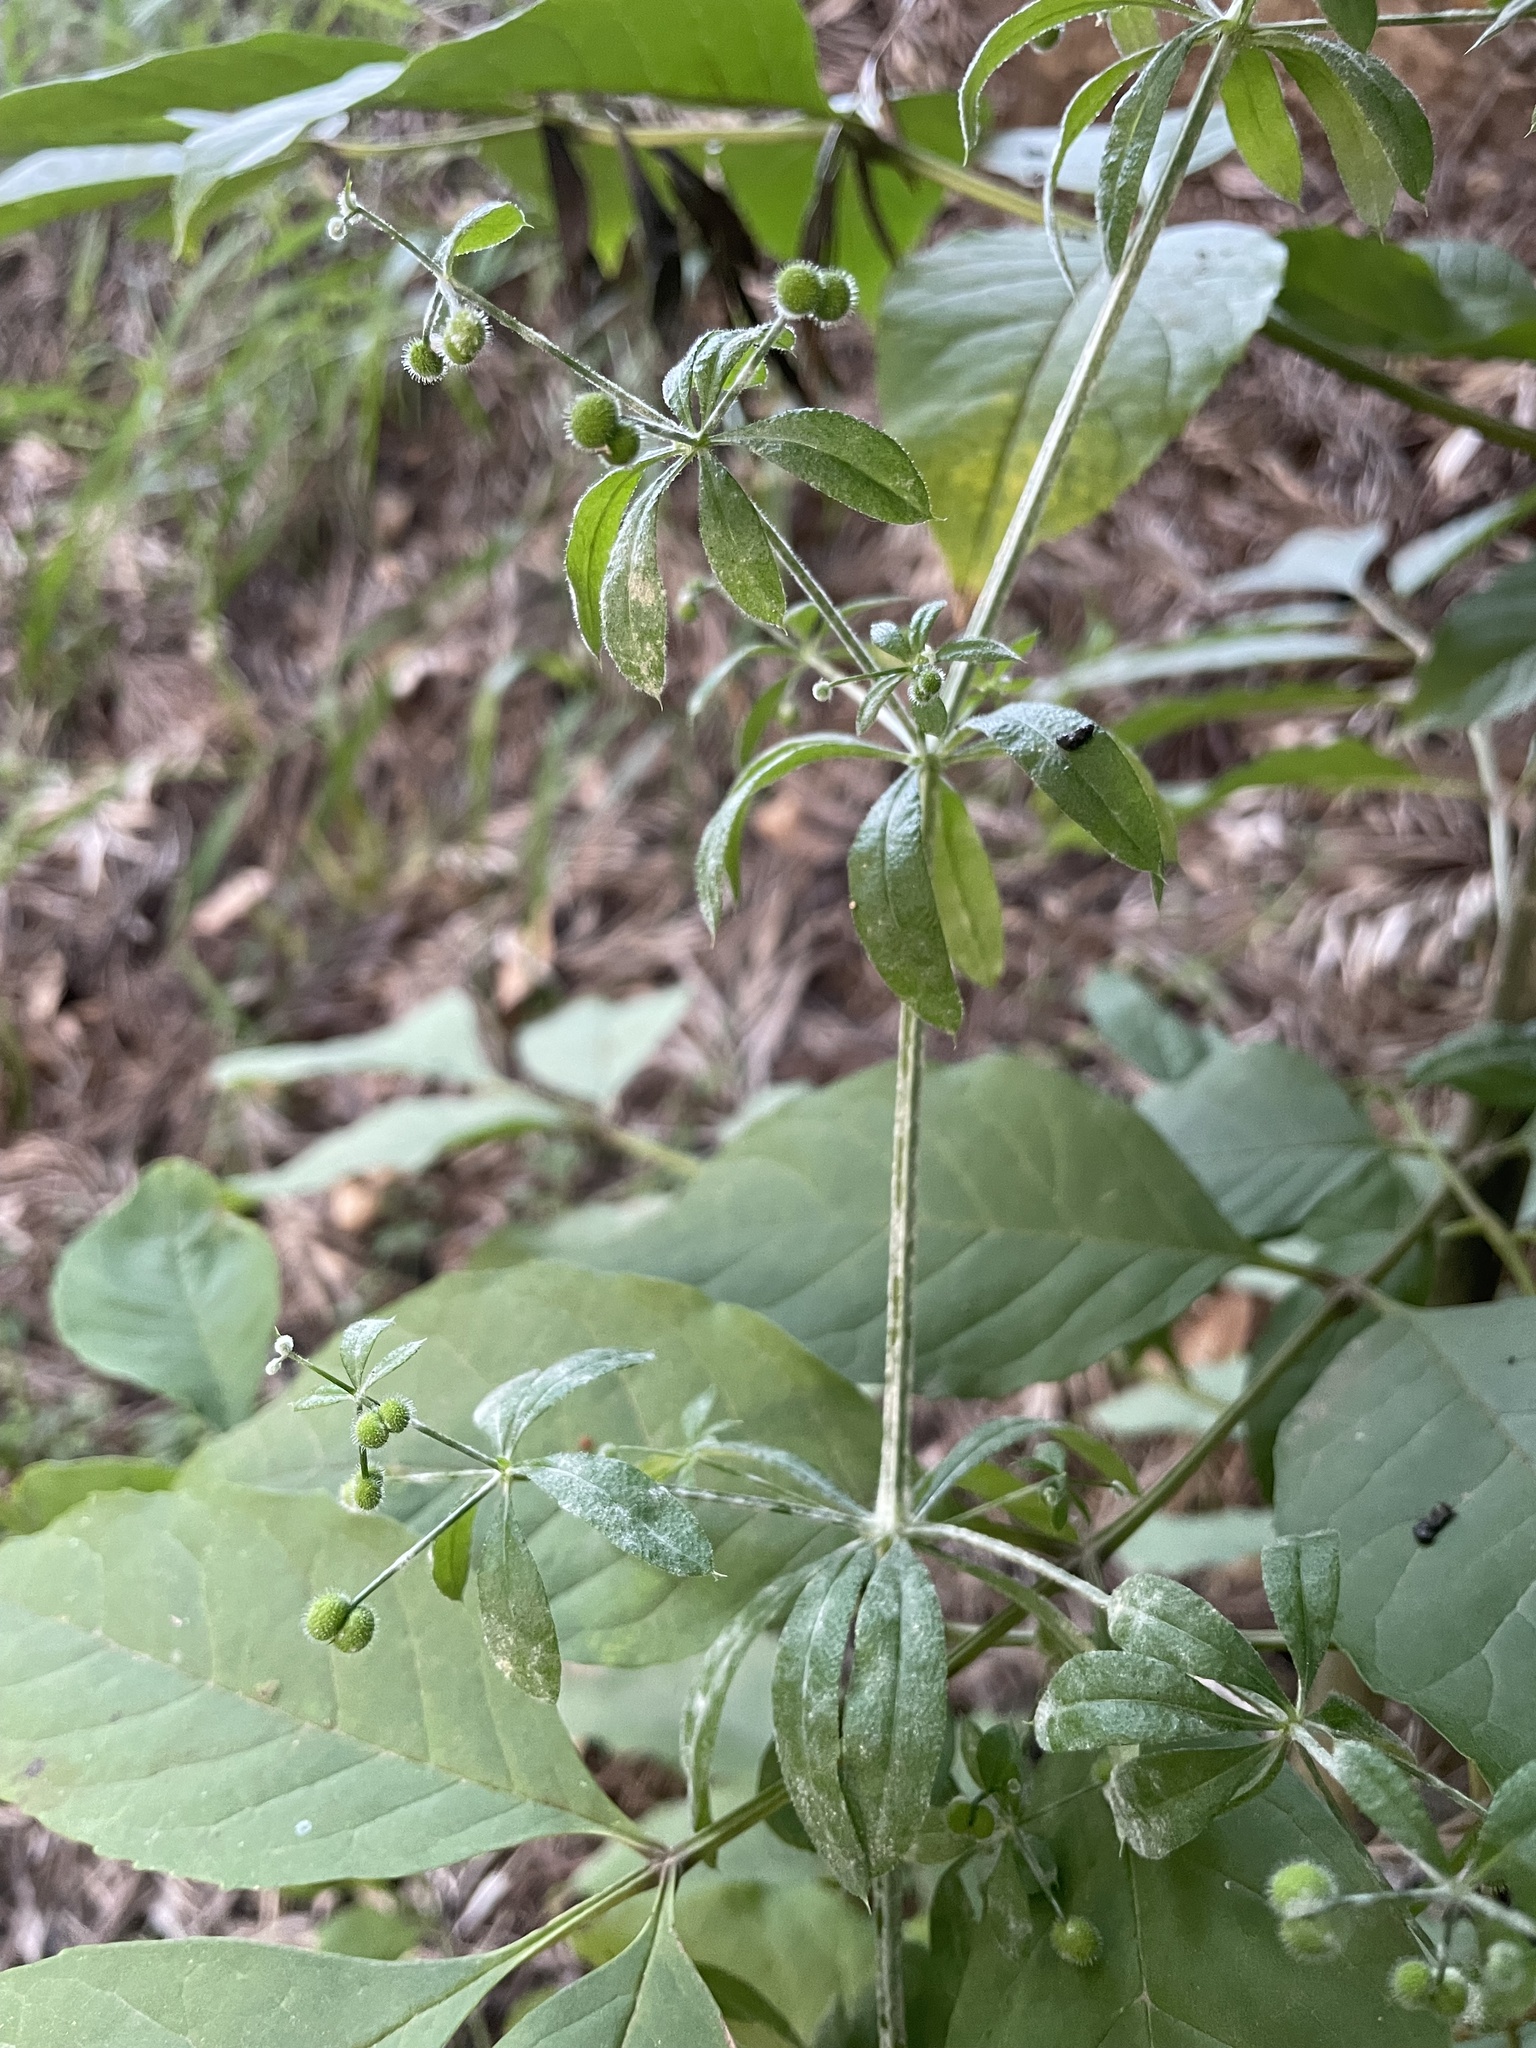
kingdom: Plantae
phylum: Tracheophyta
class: Magnoliopsida
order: Gentianales
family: Rubiaceae
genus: Galium
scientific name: Galium aparine
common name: Cleavers
